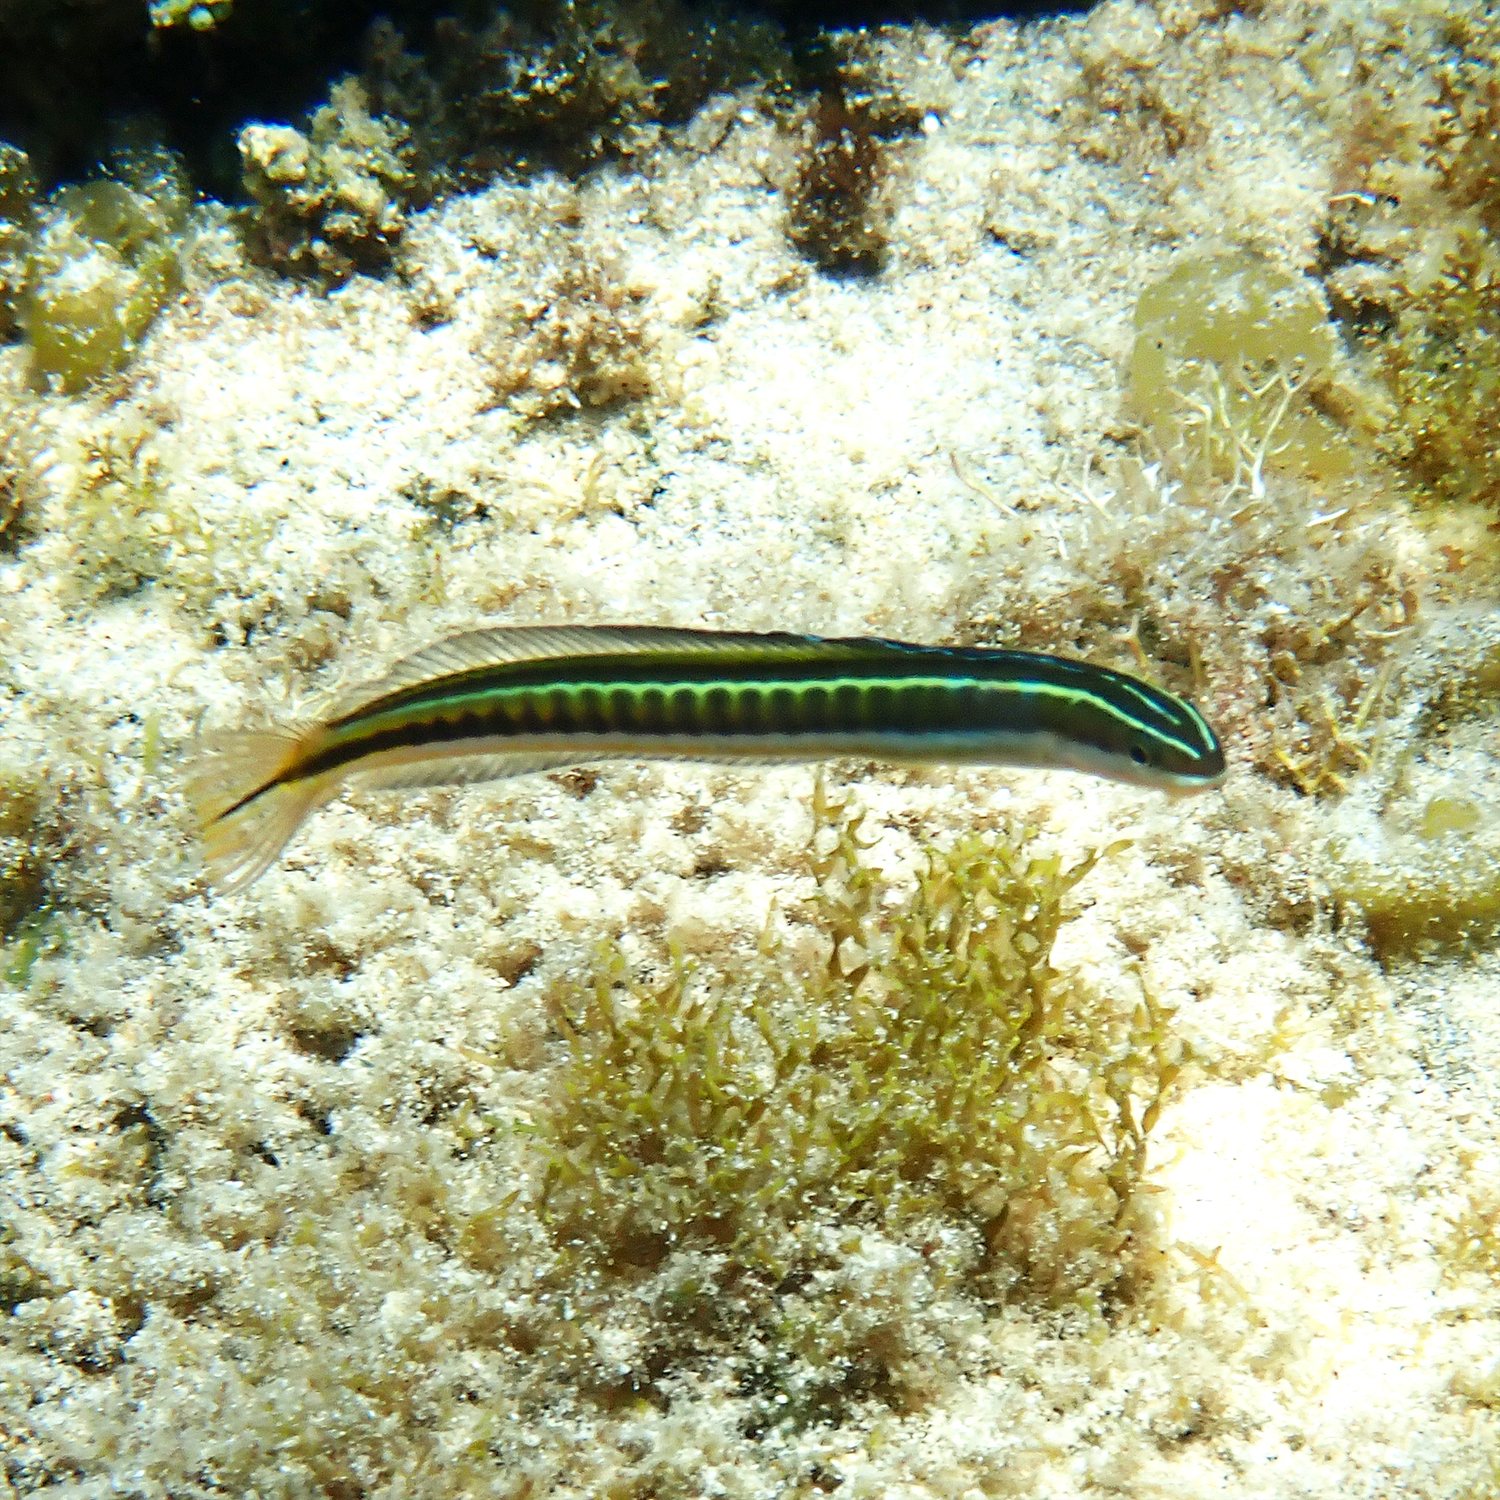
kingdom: Animalia
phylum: Chordata
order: Perciformes
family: Blenniidae
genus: Plagiotremus
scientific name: Plagiotremus tapeinosoma
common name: Hit and run blenny
